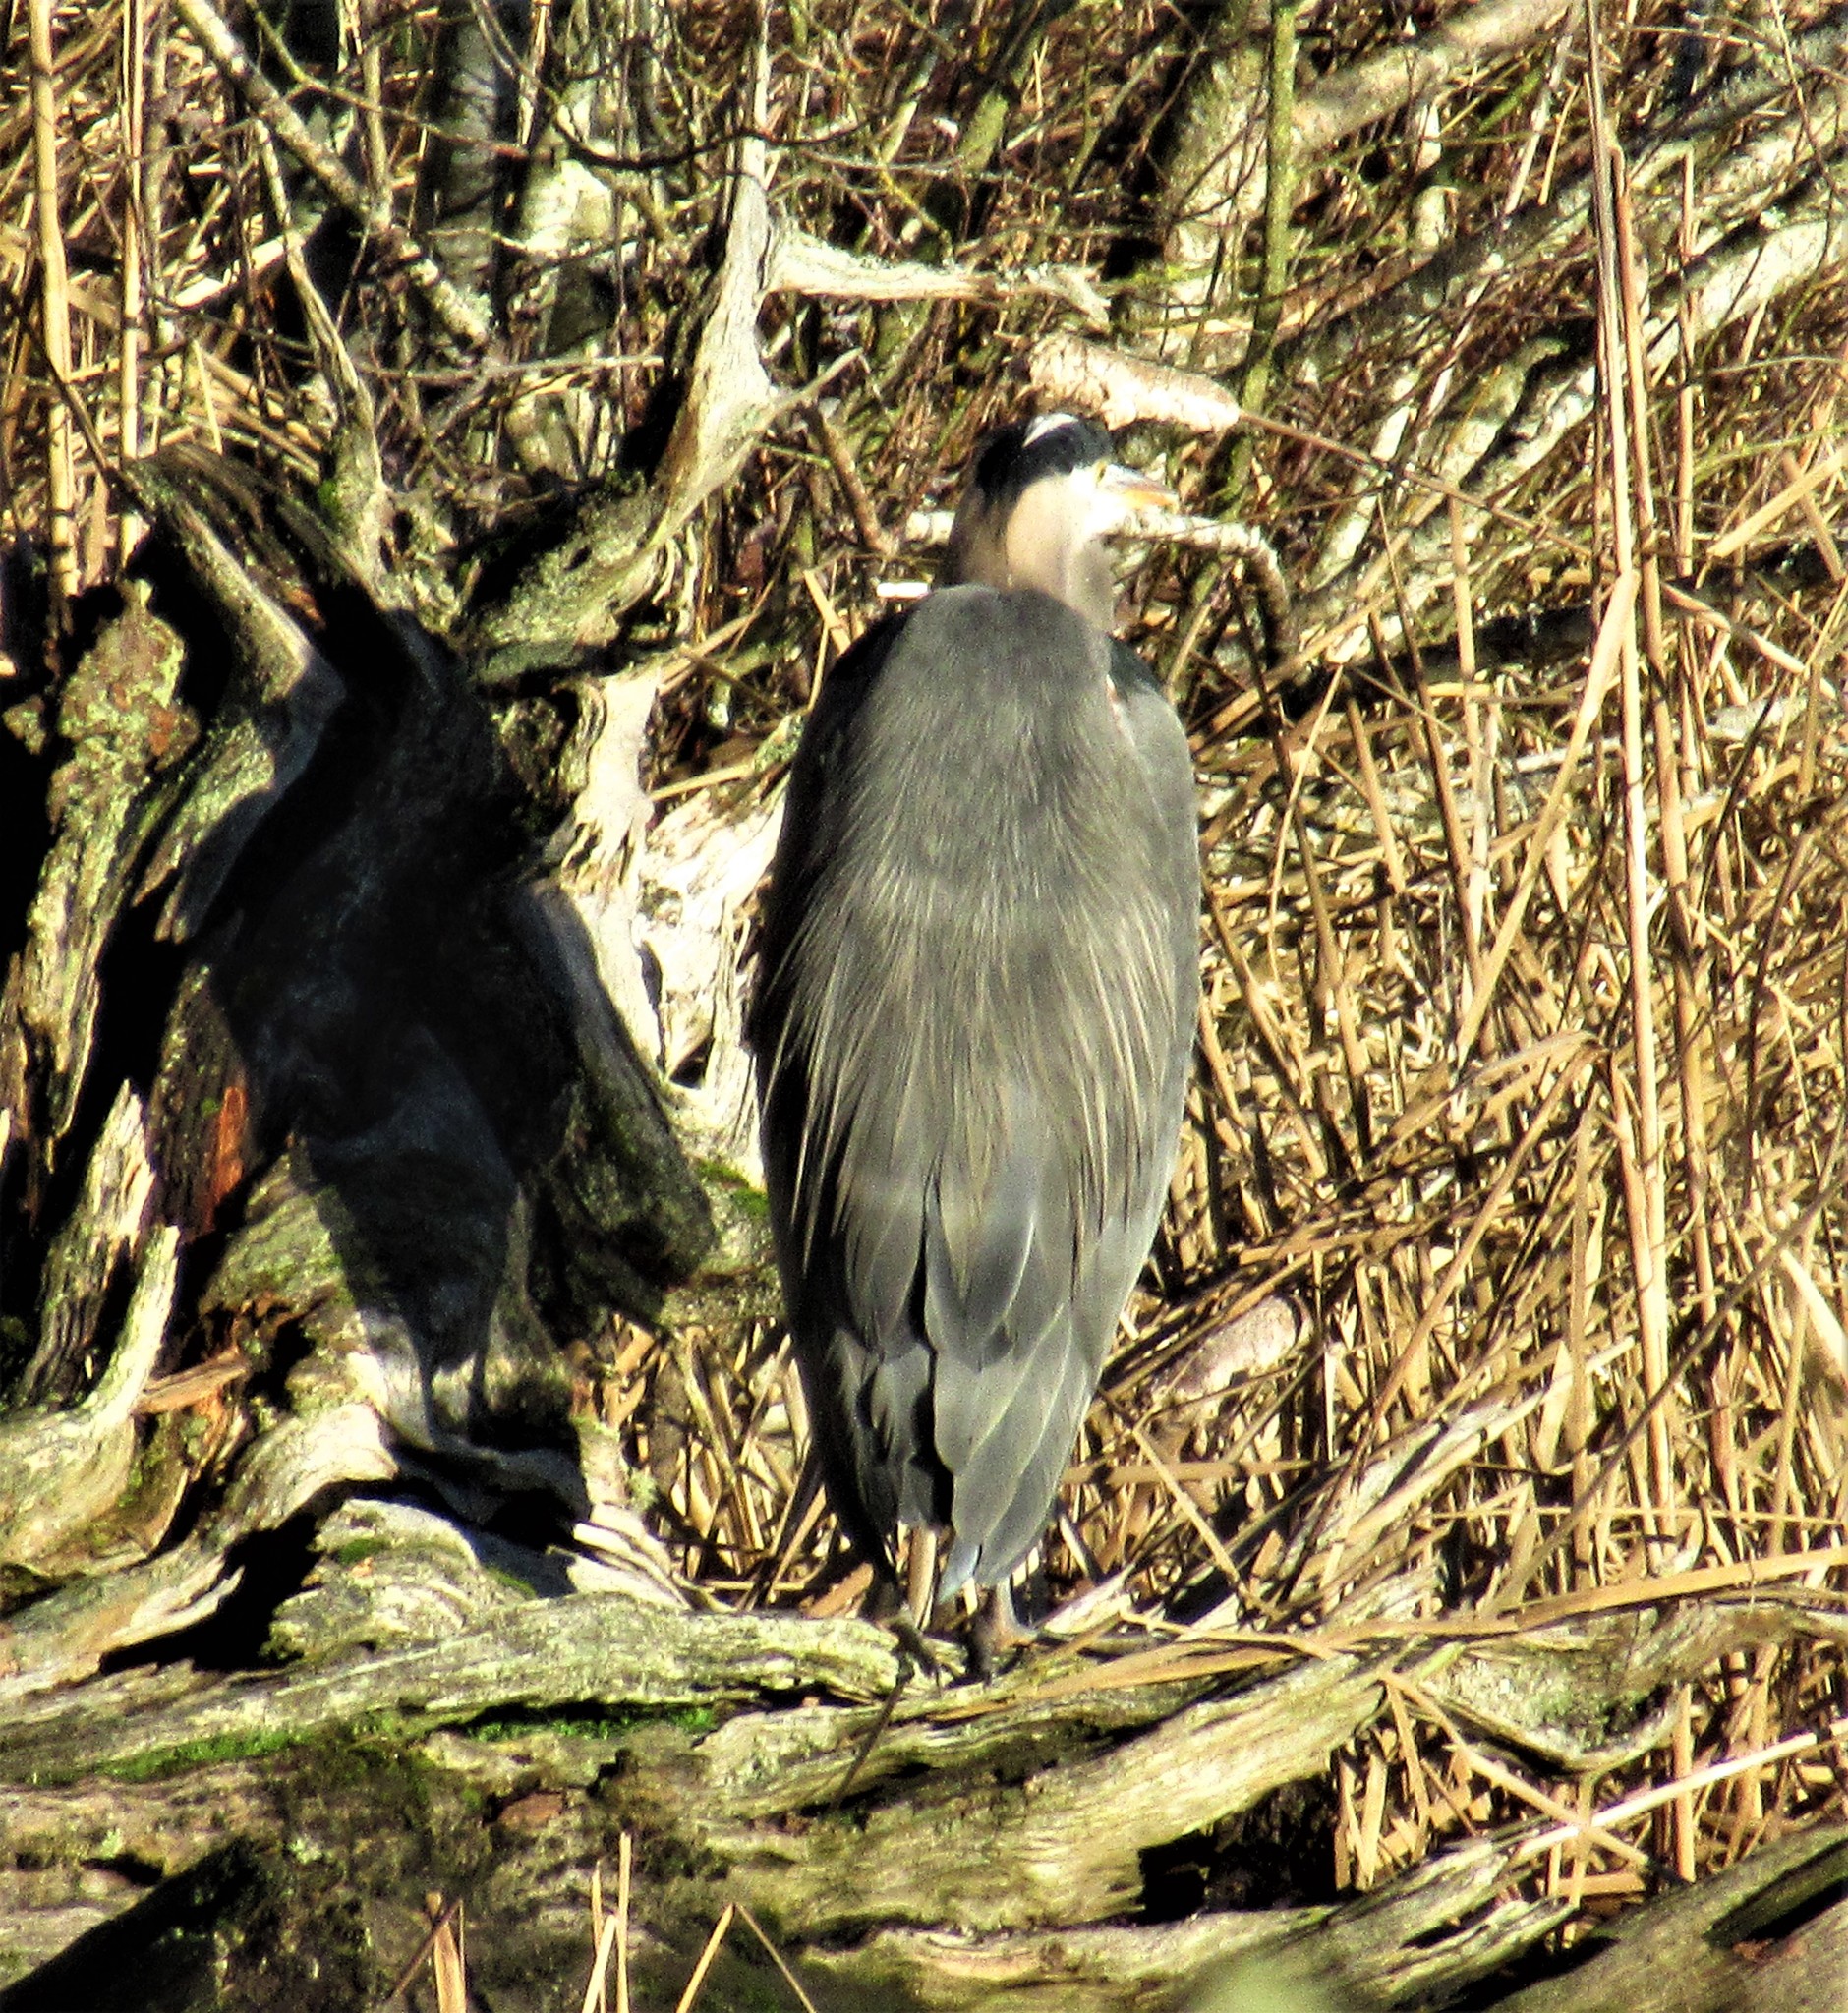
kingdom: Animalia
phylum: Chordata
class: Aves
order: Pelecaniformes
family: Ardeidae
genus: Ardea
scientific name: Ardea herodias
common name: Great blue heron
